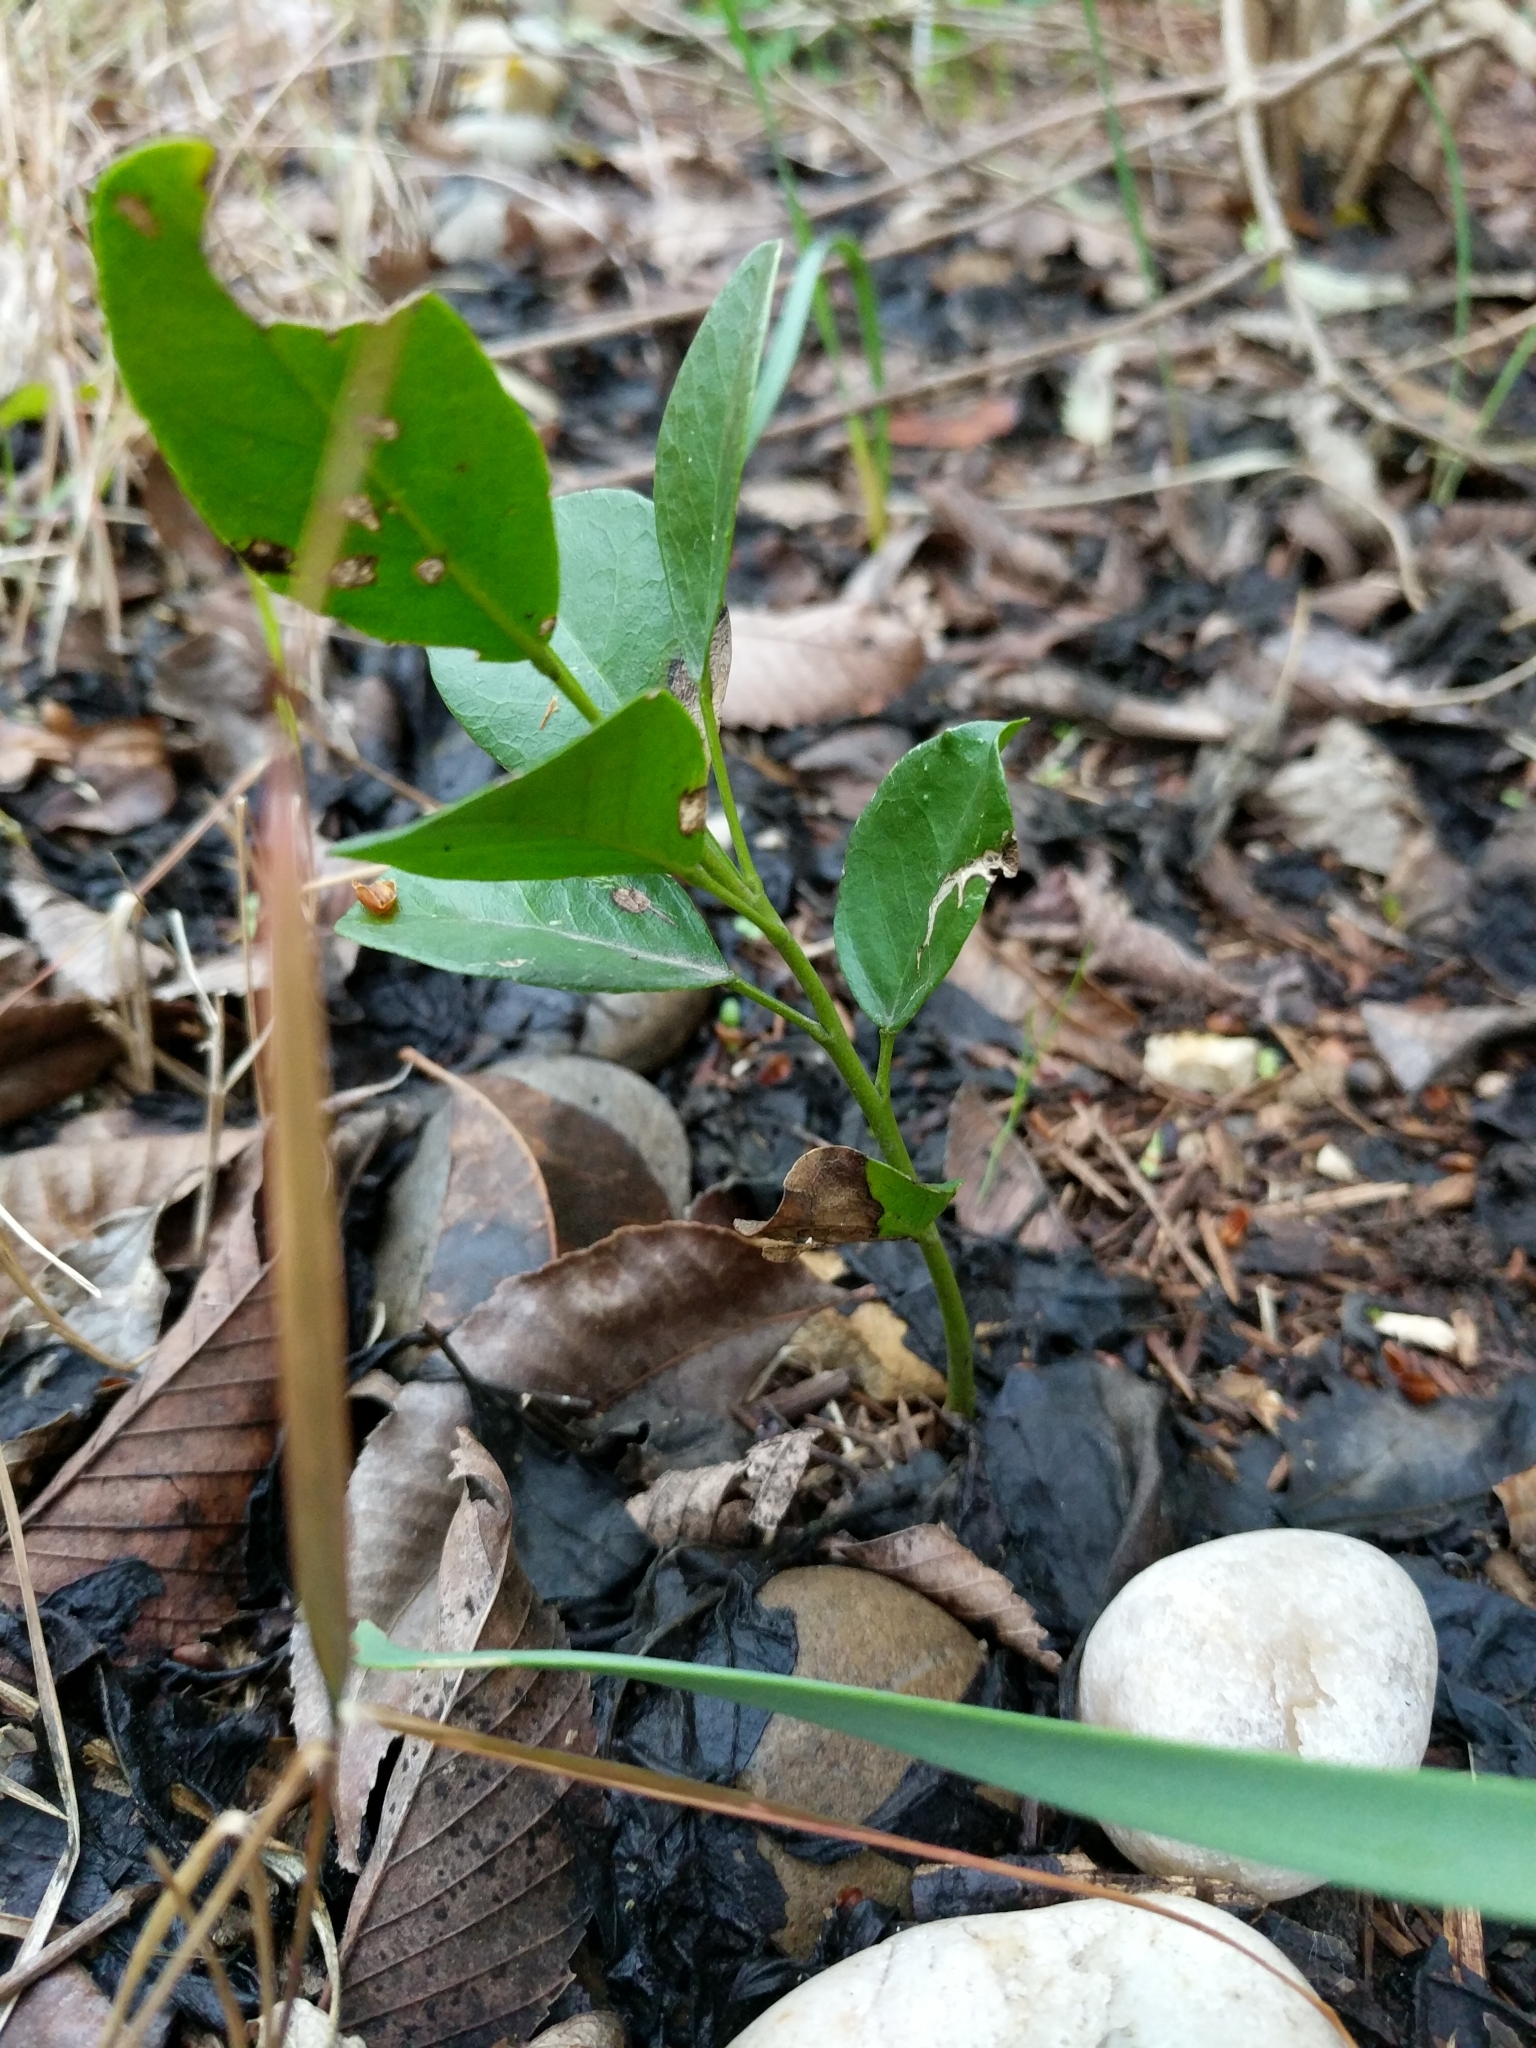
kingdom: Plantae
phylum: Tracheophyta
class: Magnoliopsida
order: Fabales
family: Fabaceae
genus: Dermatophyllum
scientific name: Dermatophyllum secundiflorum
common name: Texas-mountain-laurel
